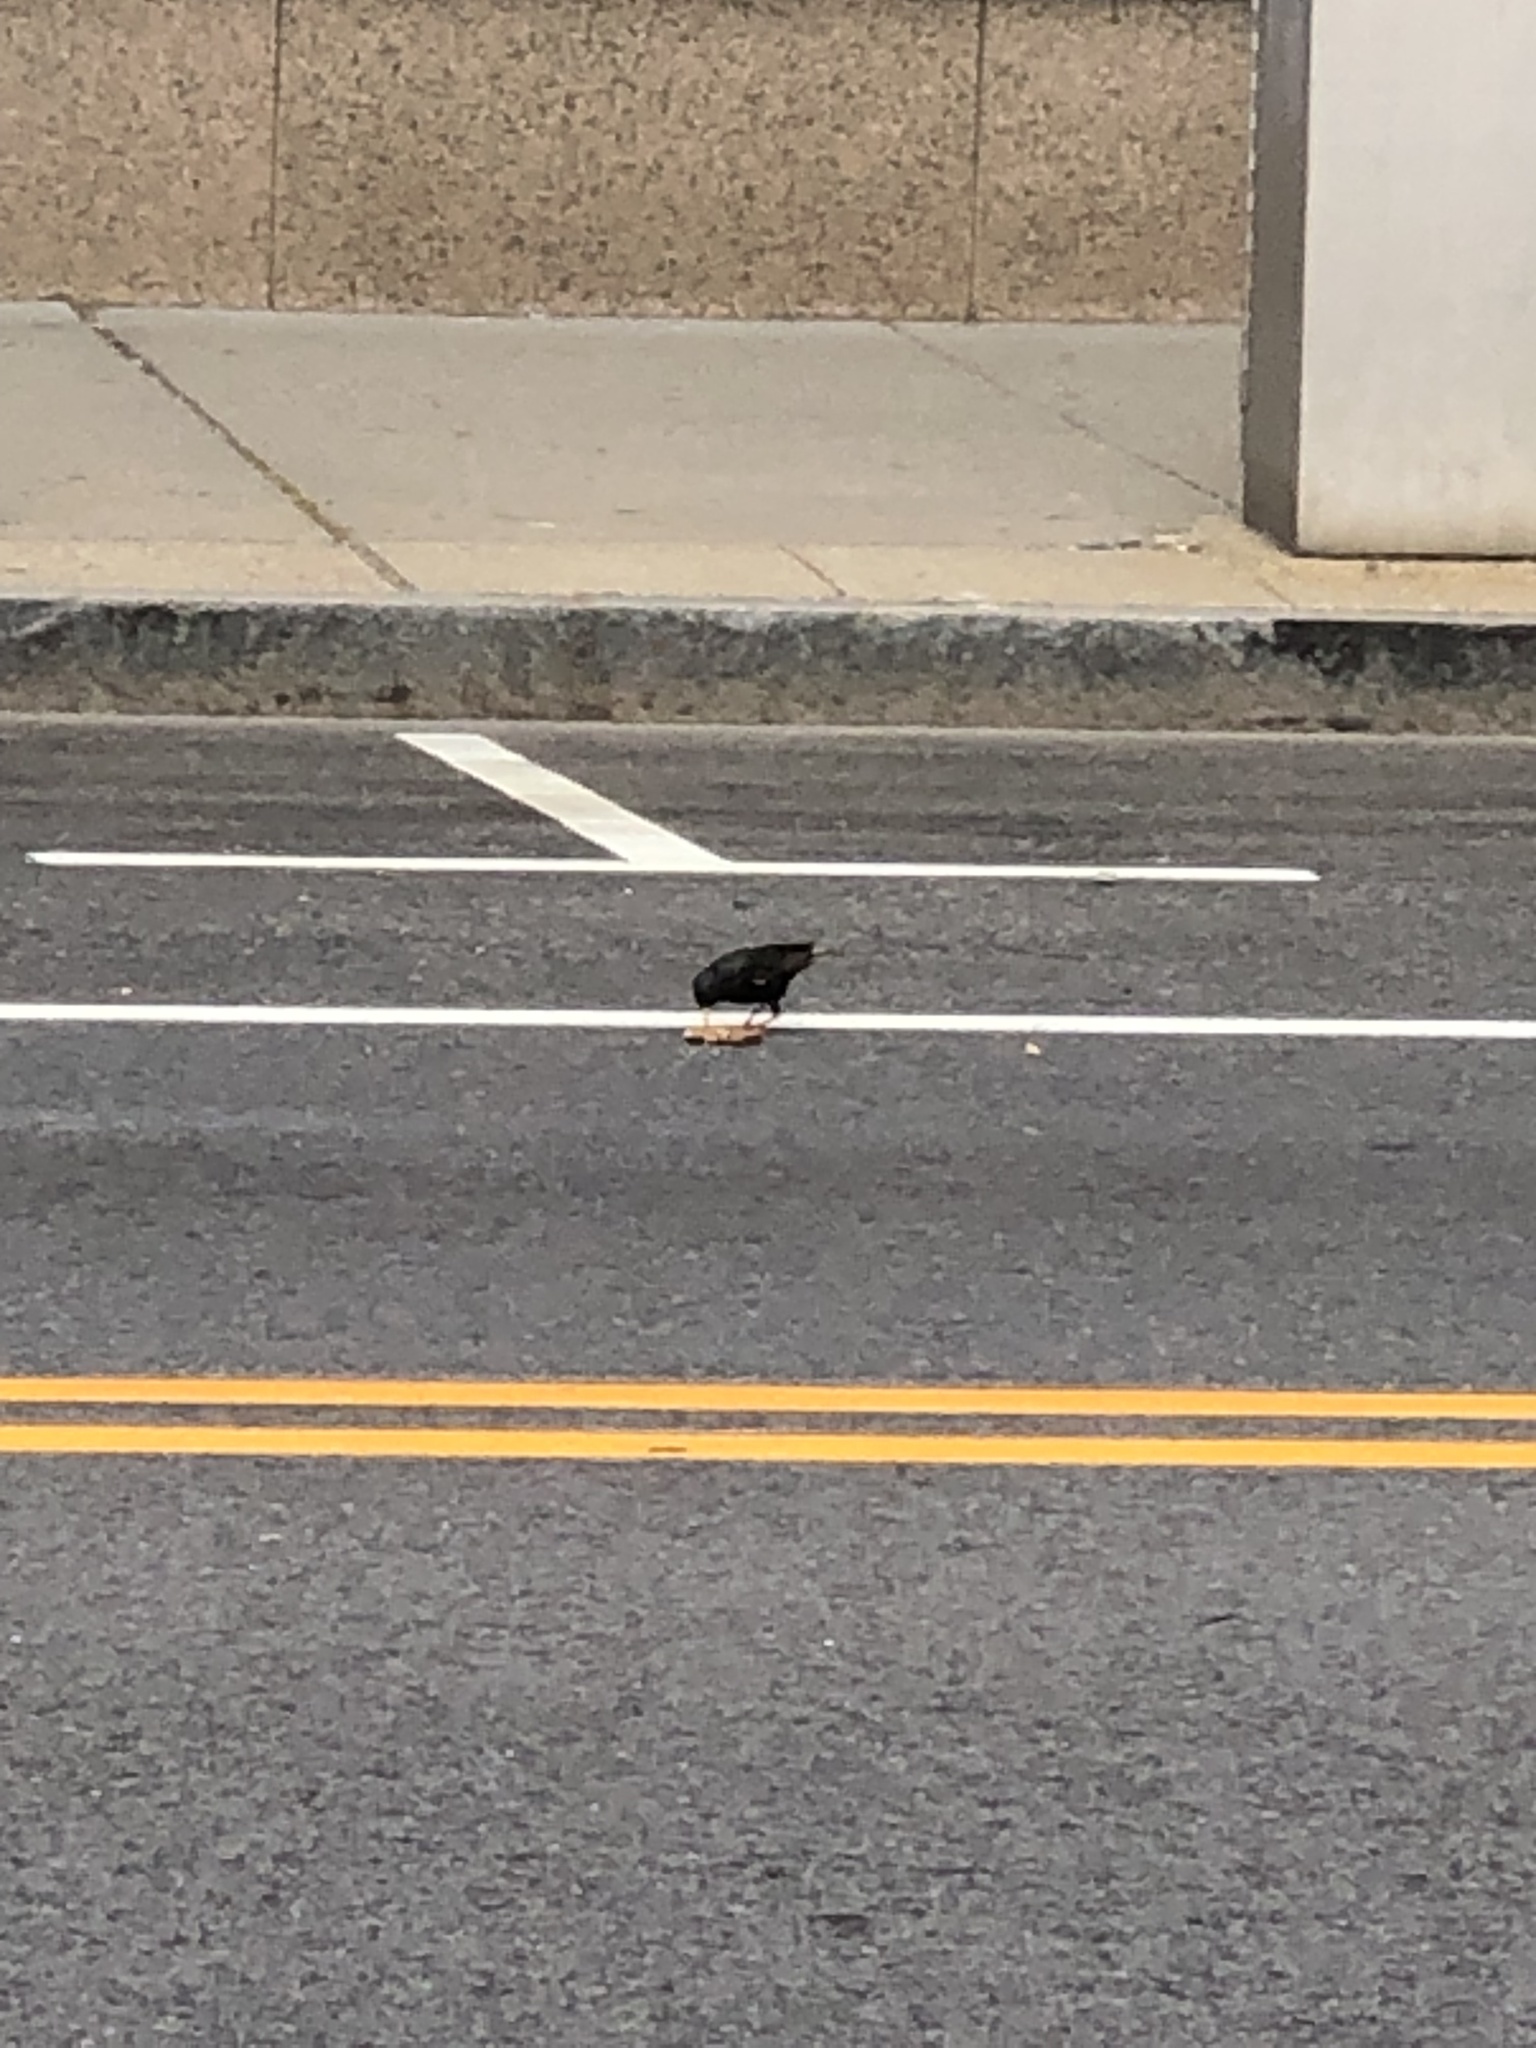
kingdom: Animalia
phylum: Chordata
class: Aves
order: Passeriformes
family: Sturnidae
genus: Sturnus
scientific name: Sturnus vulgaris
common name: Common starling
